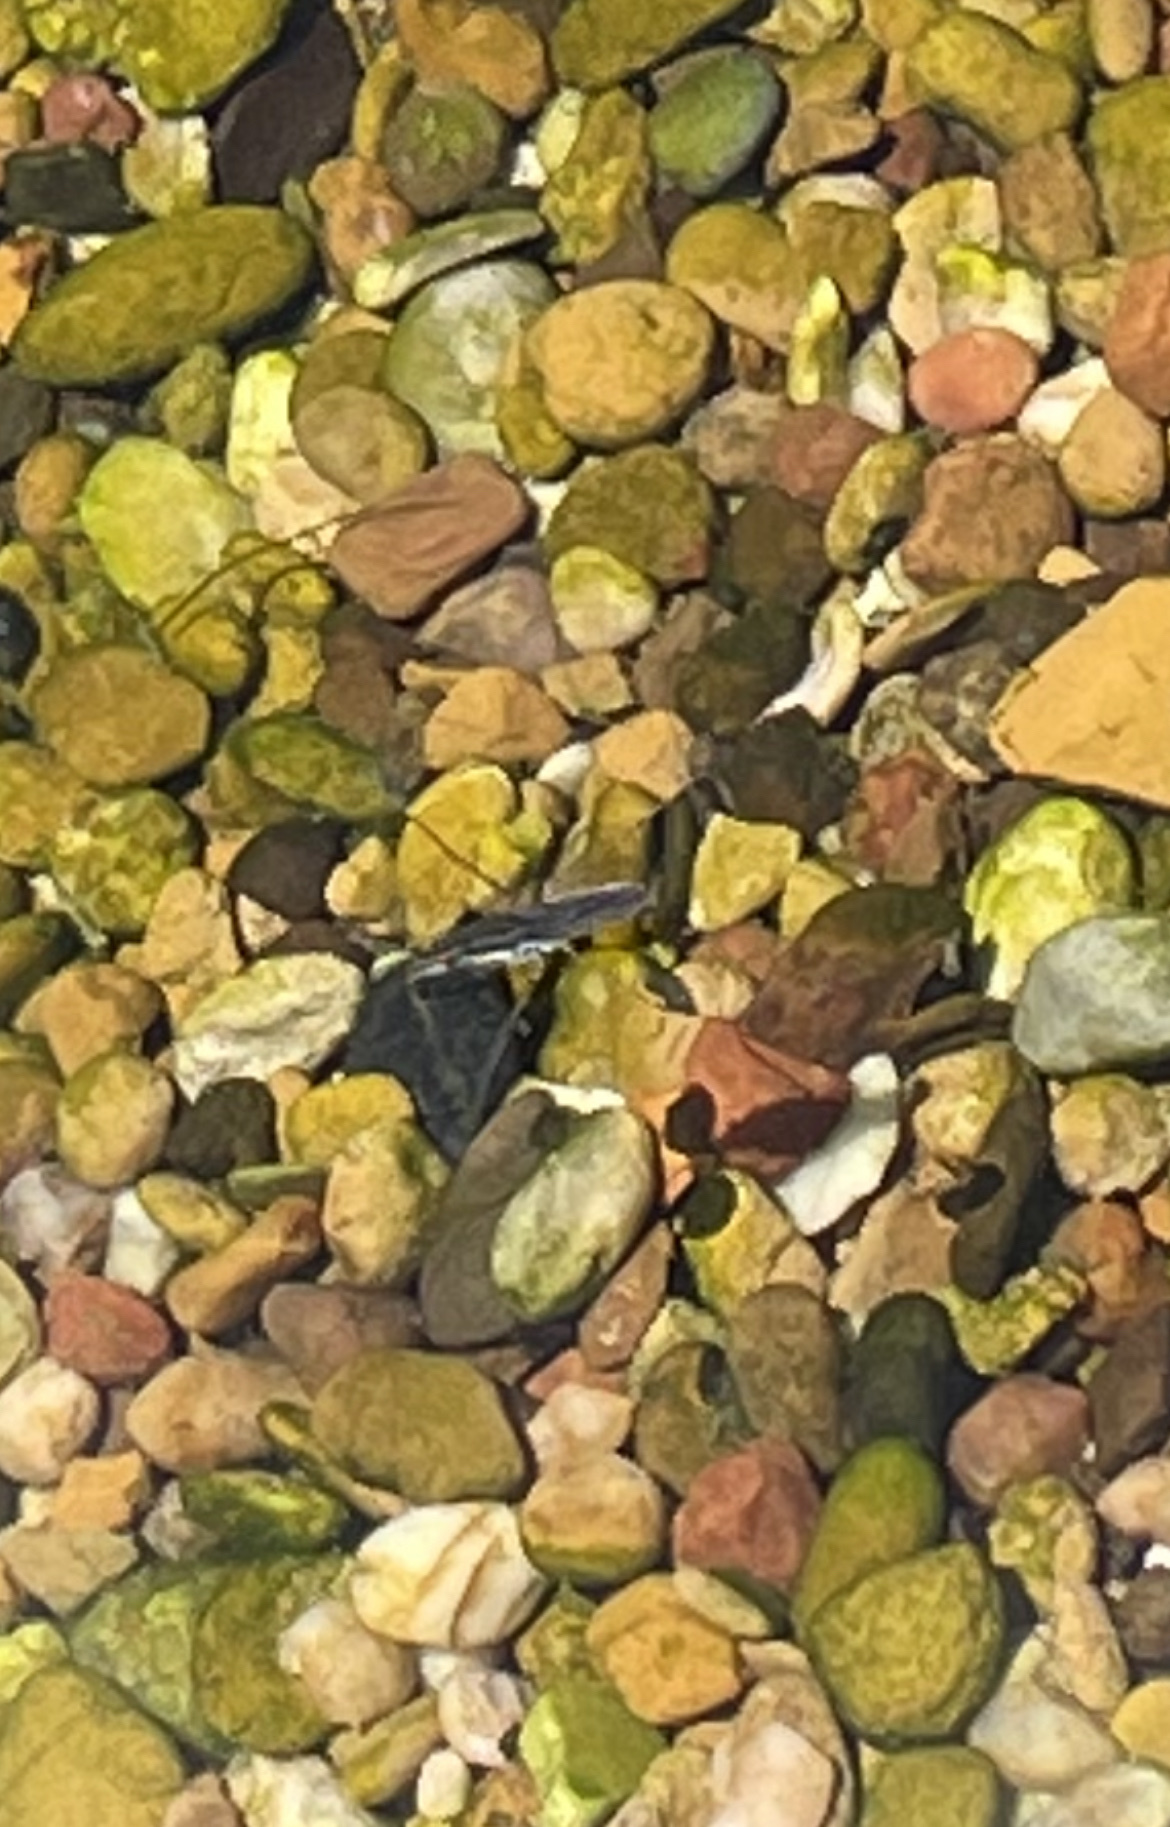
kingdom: Animalia
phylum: Arthropoda
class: Insecta
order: Hemiptera
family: Gerridae
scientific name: Gerridae
